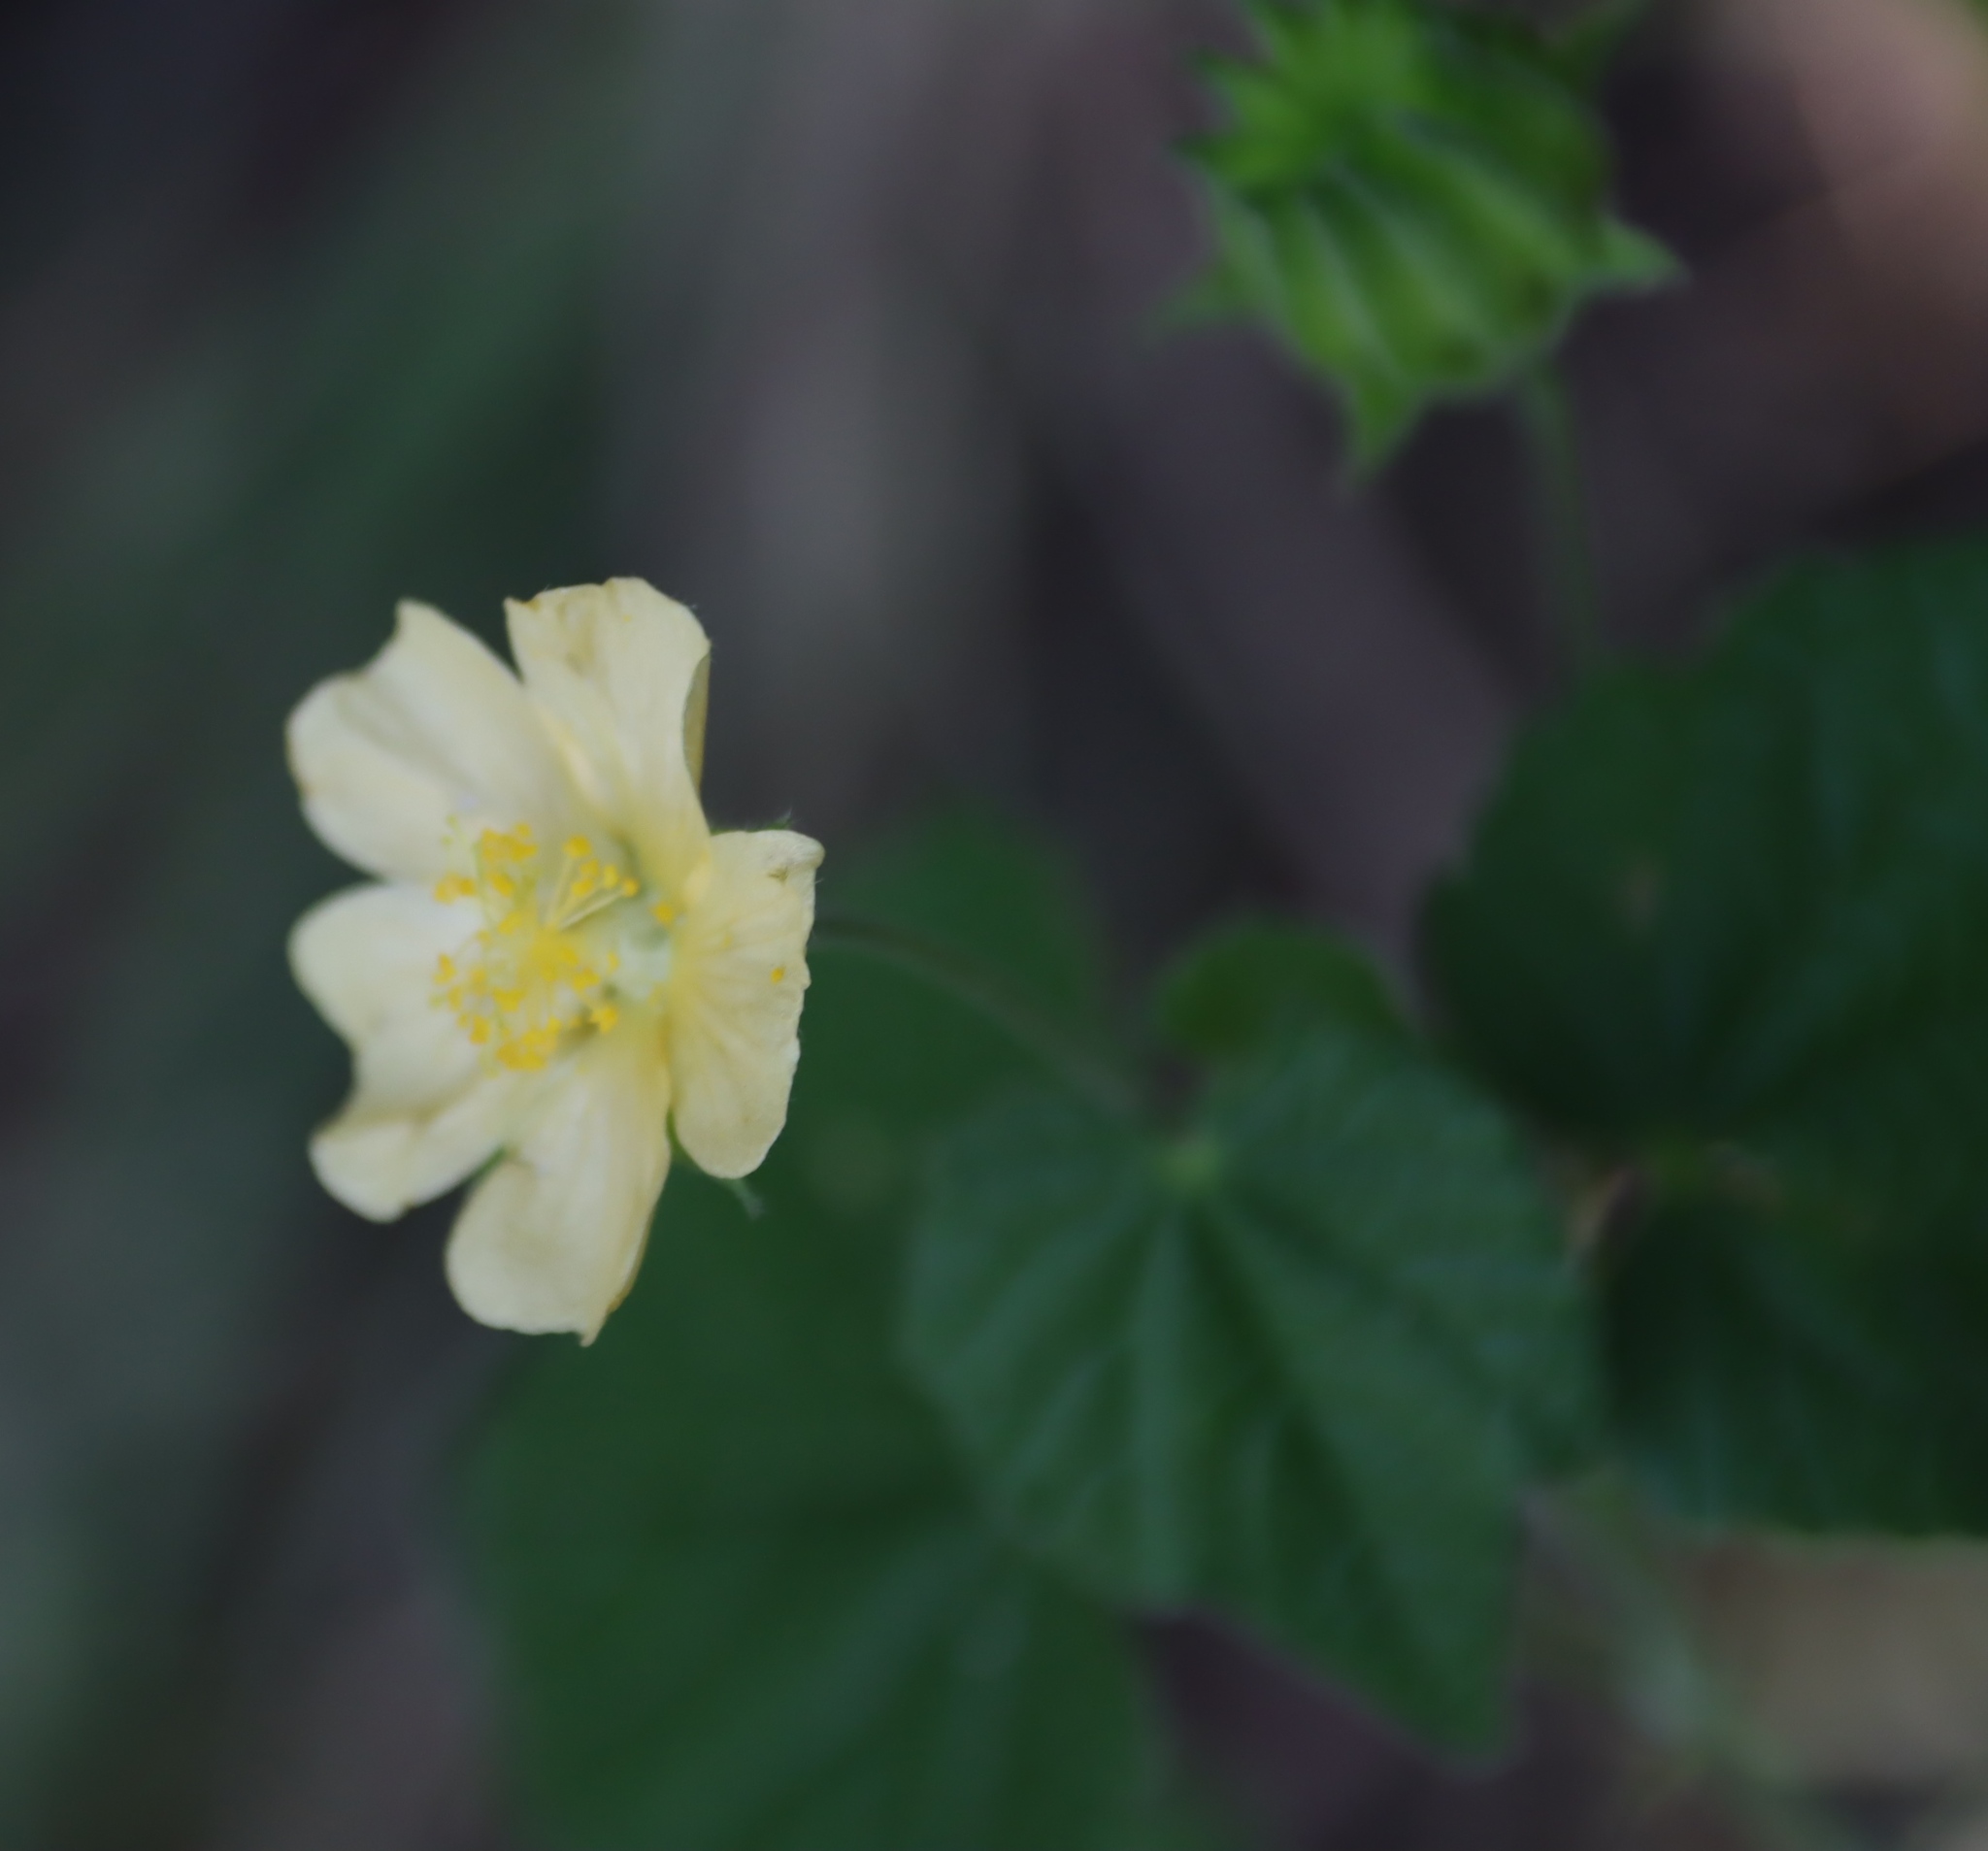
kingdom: Plantae
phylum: Tracheophyta
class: Magnoliopsida
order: Malvales
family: Malvaceae
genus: Abutilon
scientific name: Abutilon sonneratianum
